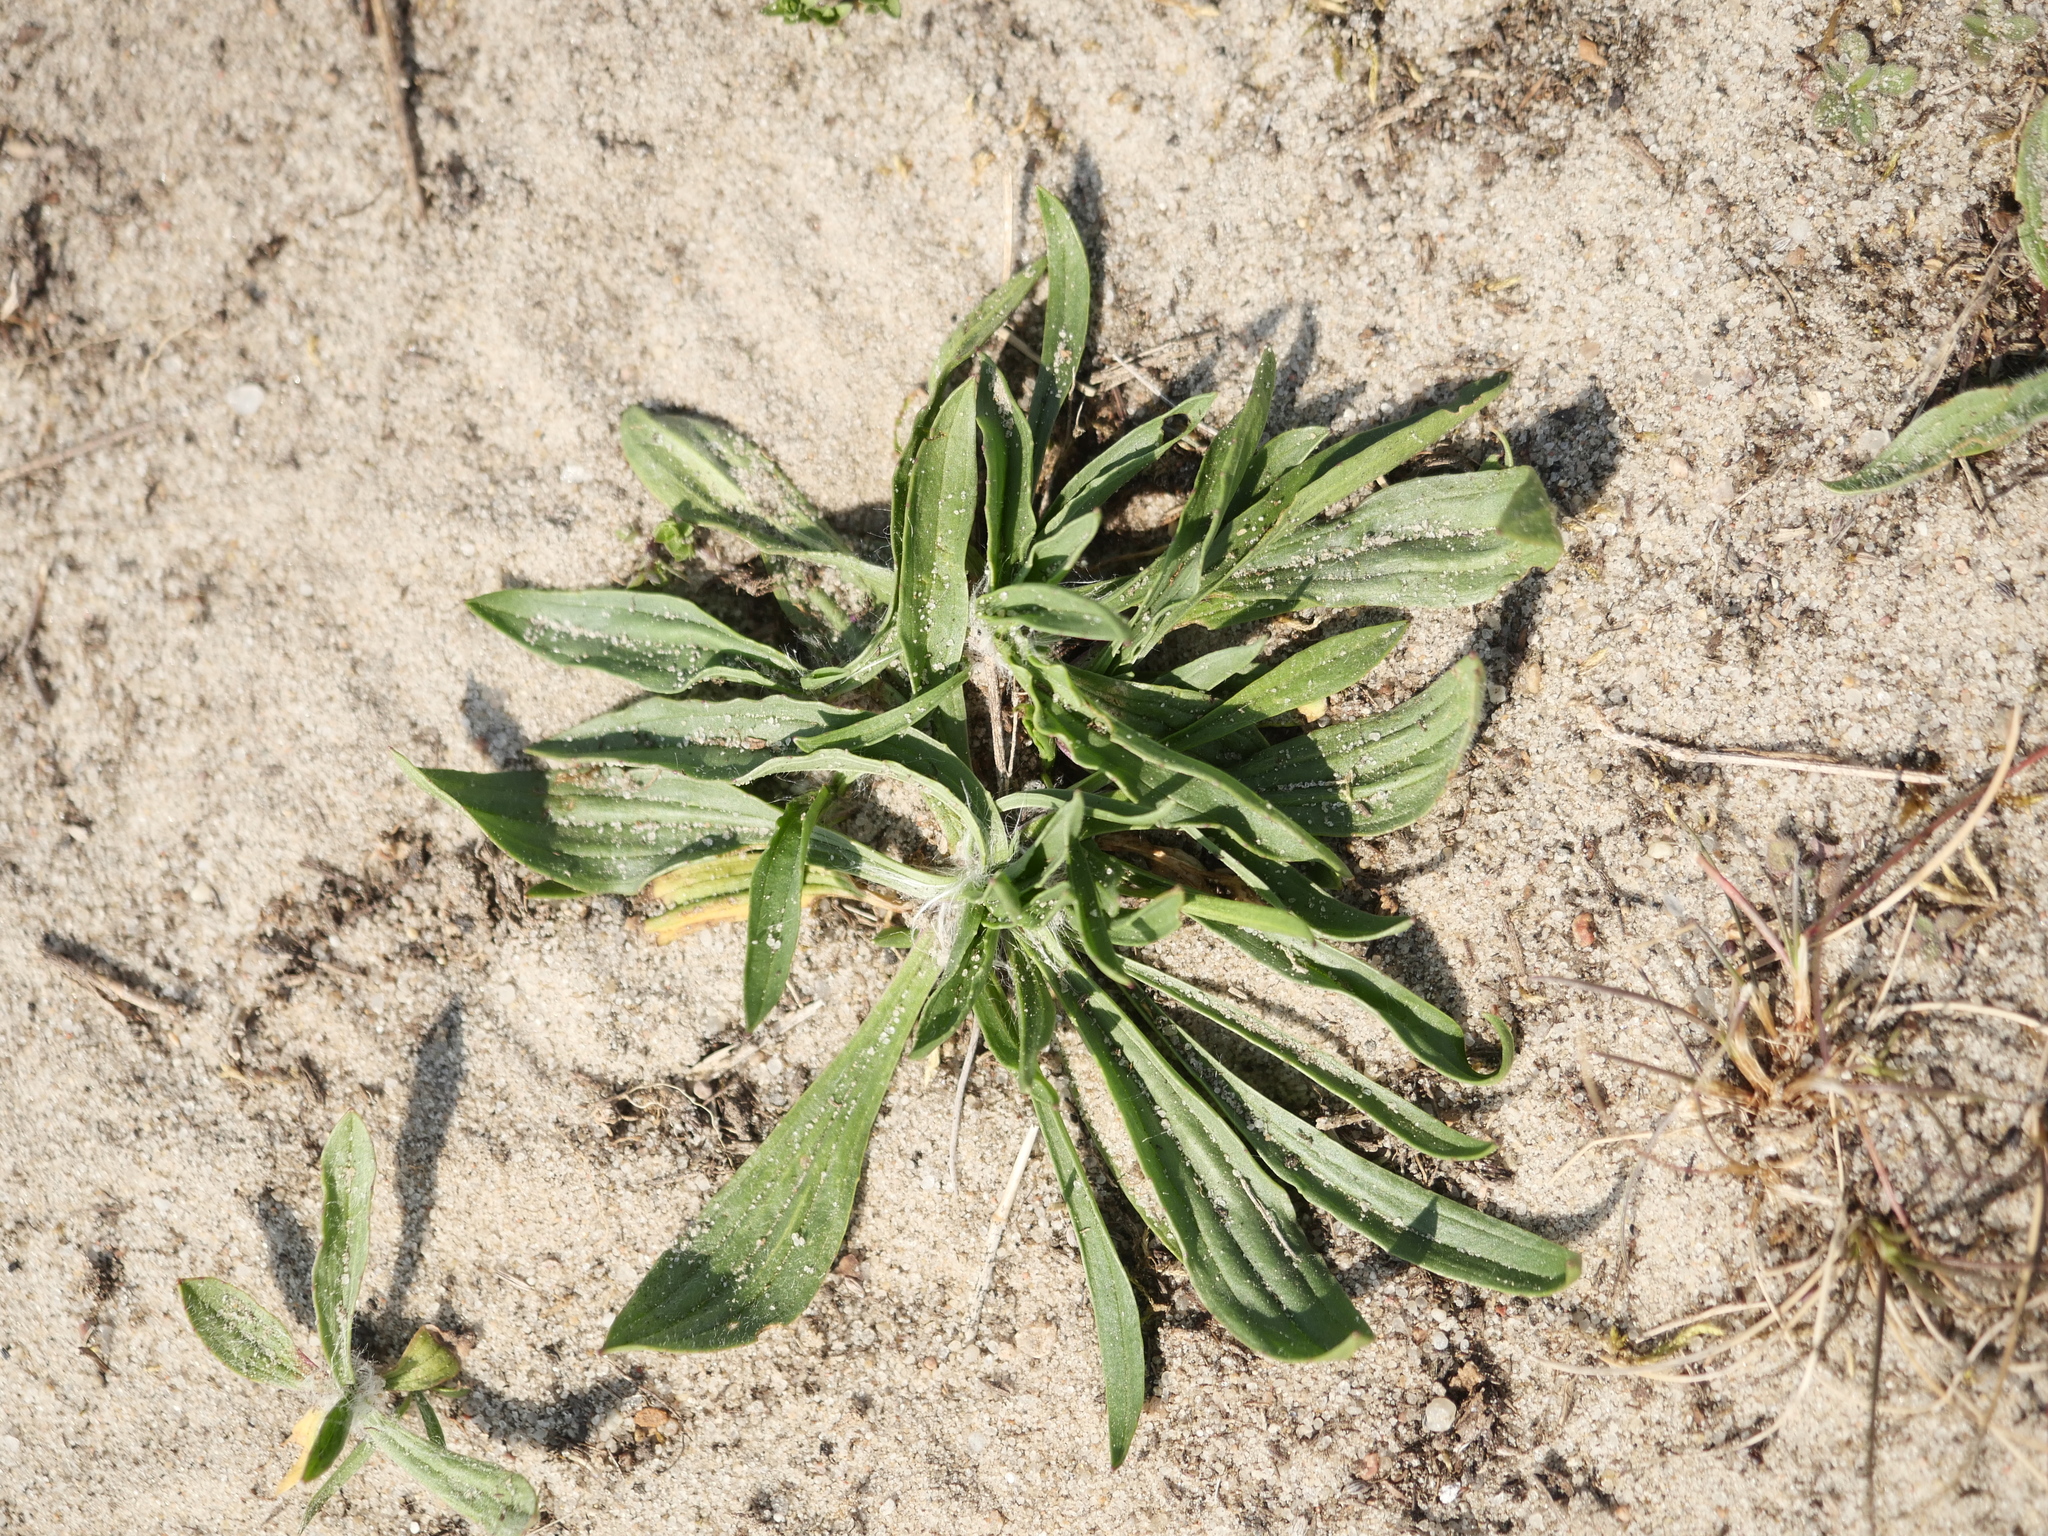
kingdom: Plantae
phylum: Tracheophyta
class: Magnoliopsida
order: Lamiales
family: Plantaginaceae
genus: Plantago
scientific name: Plantago lanceolata
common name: Ribwort plantain
